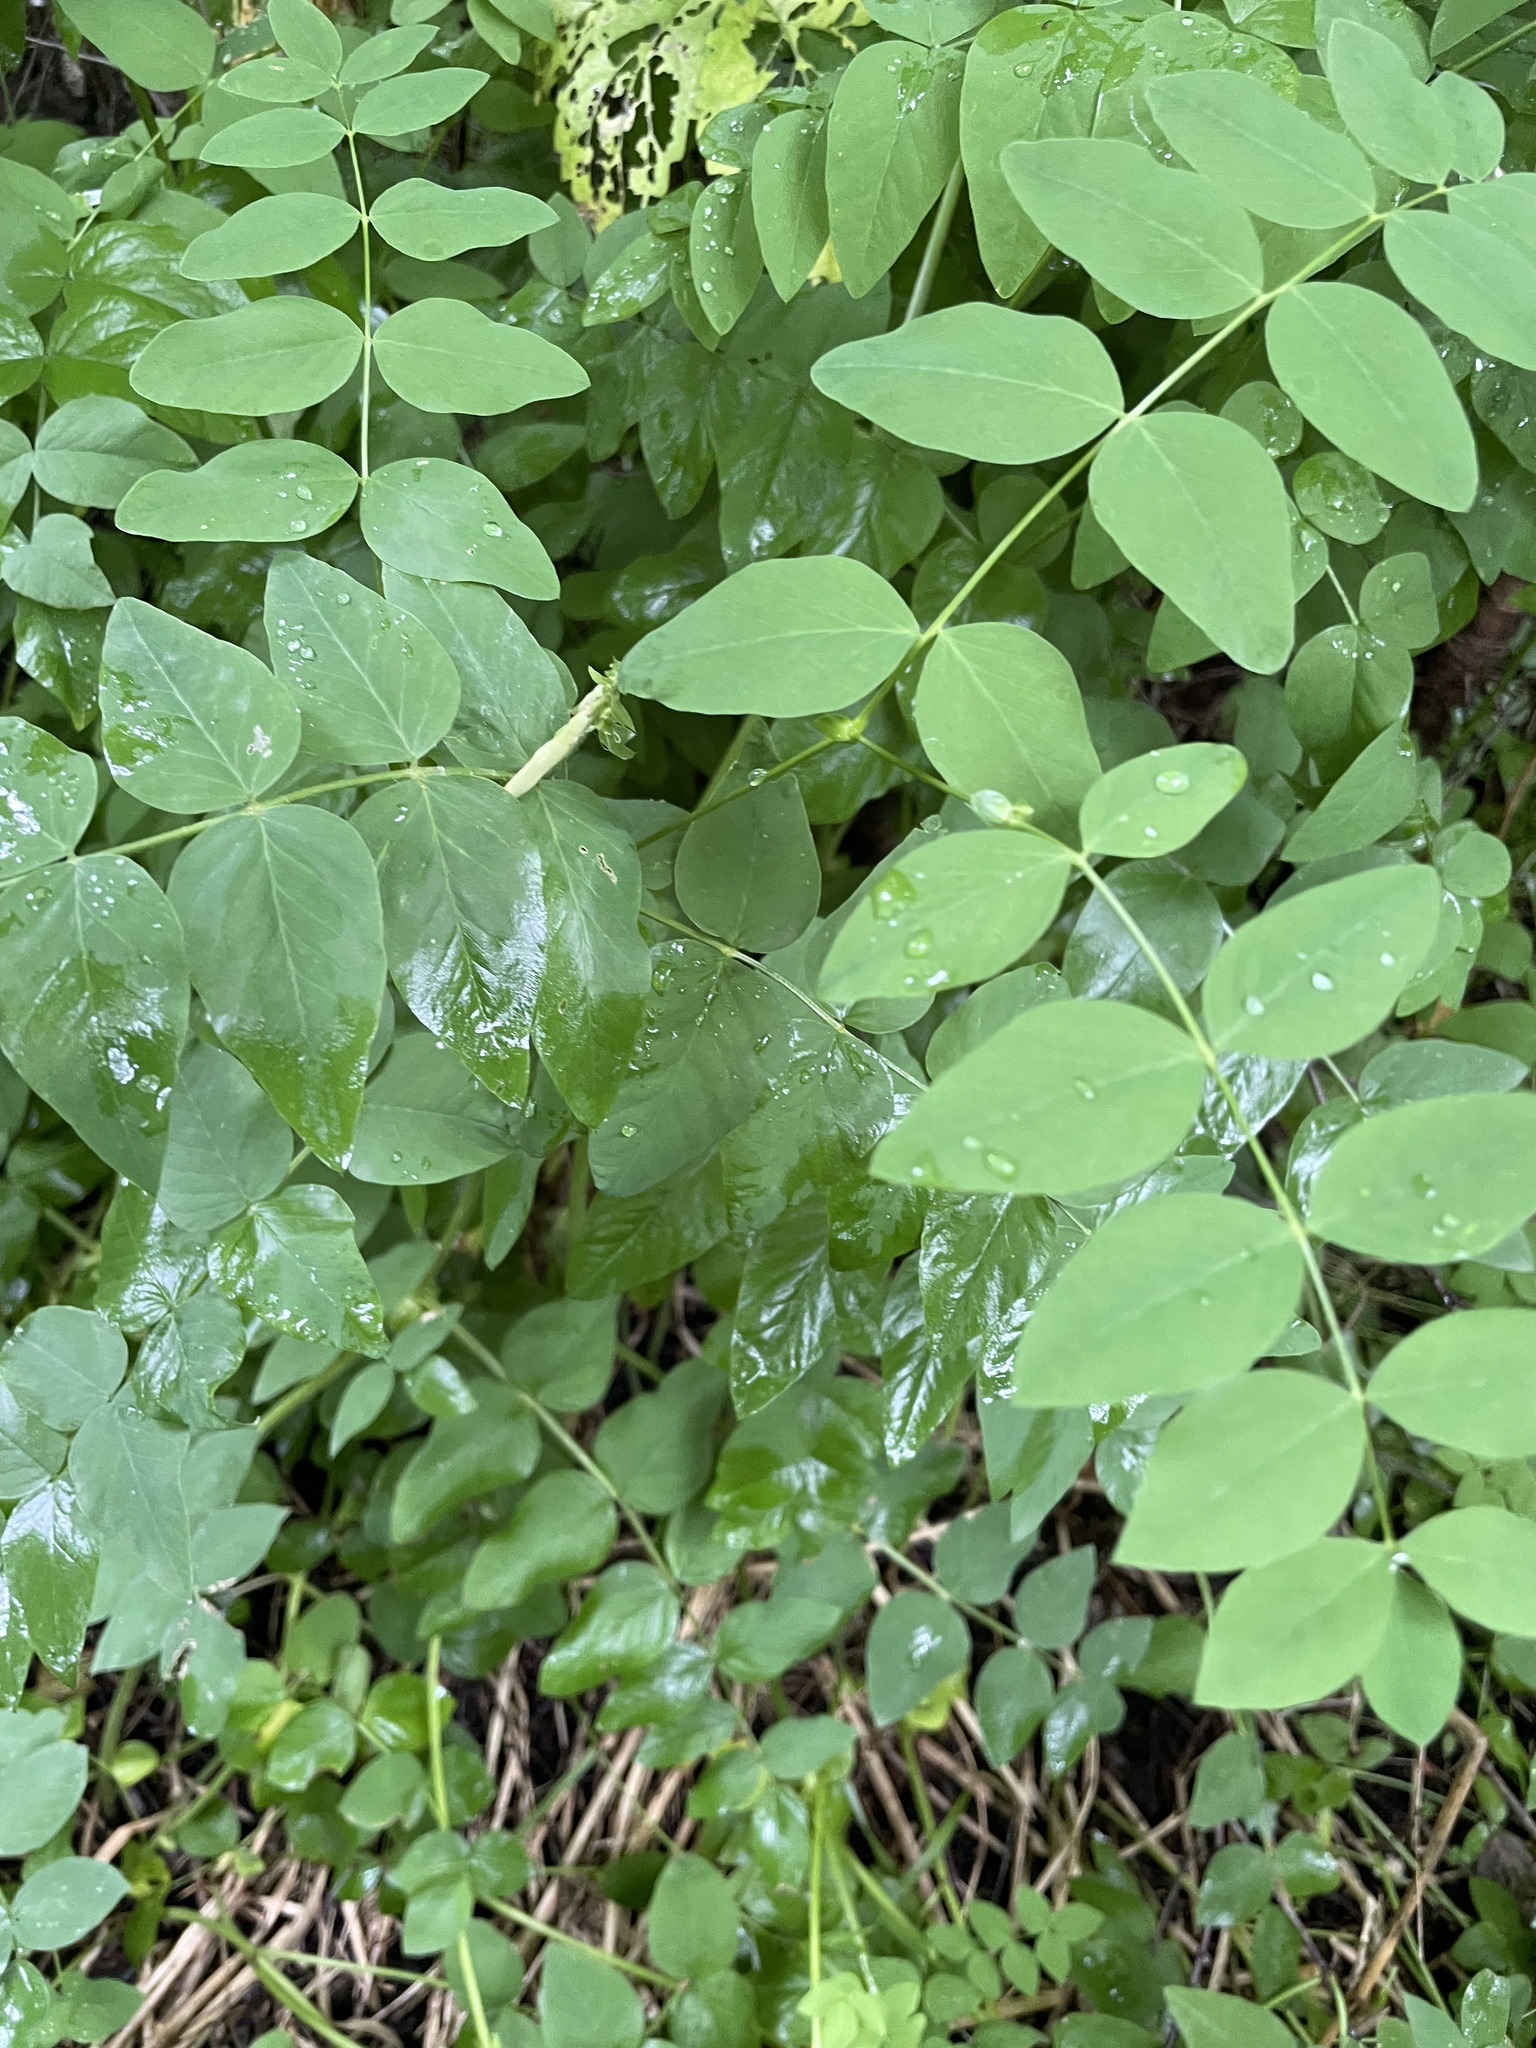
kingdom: Plantae
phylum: Tracheophyta
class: Magnoliopsida
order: Fabales
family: Fabaceae
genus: Galega
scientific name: Galega orientalis
